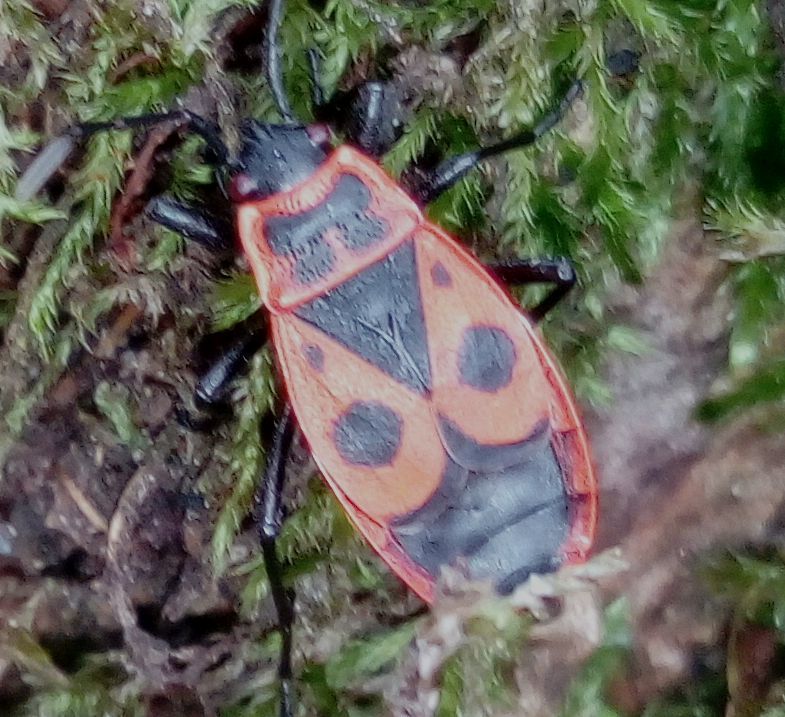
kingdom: Animalia
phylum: Arthropoda
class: Insecta
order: Hemiptera
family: Pyrrhocoridae
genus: Pyrrhocoris
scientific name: Pyrrhocoris apterus
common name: Firebug
